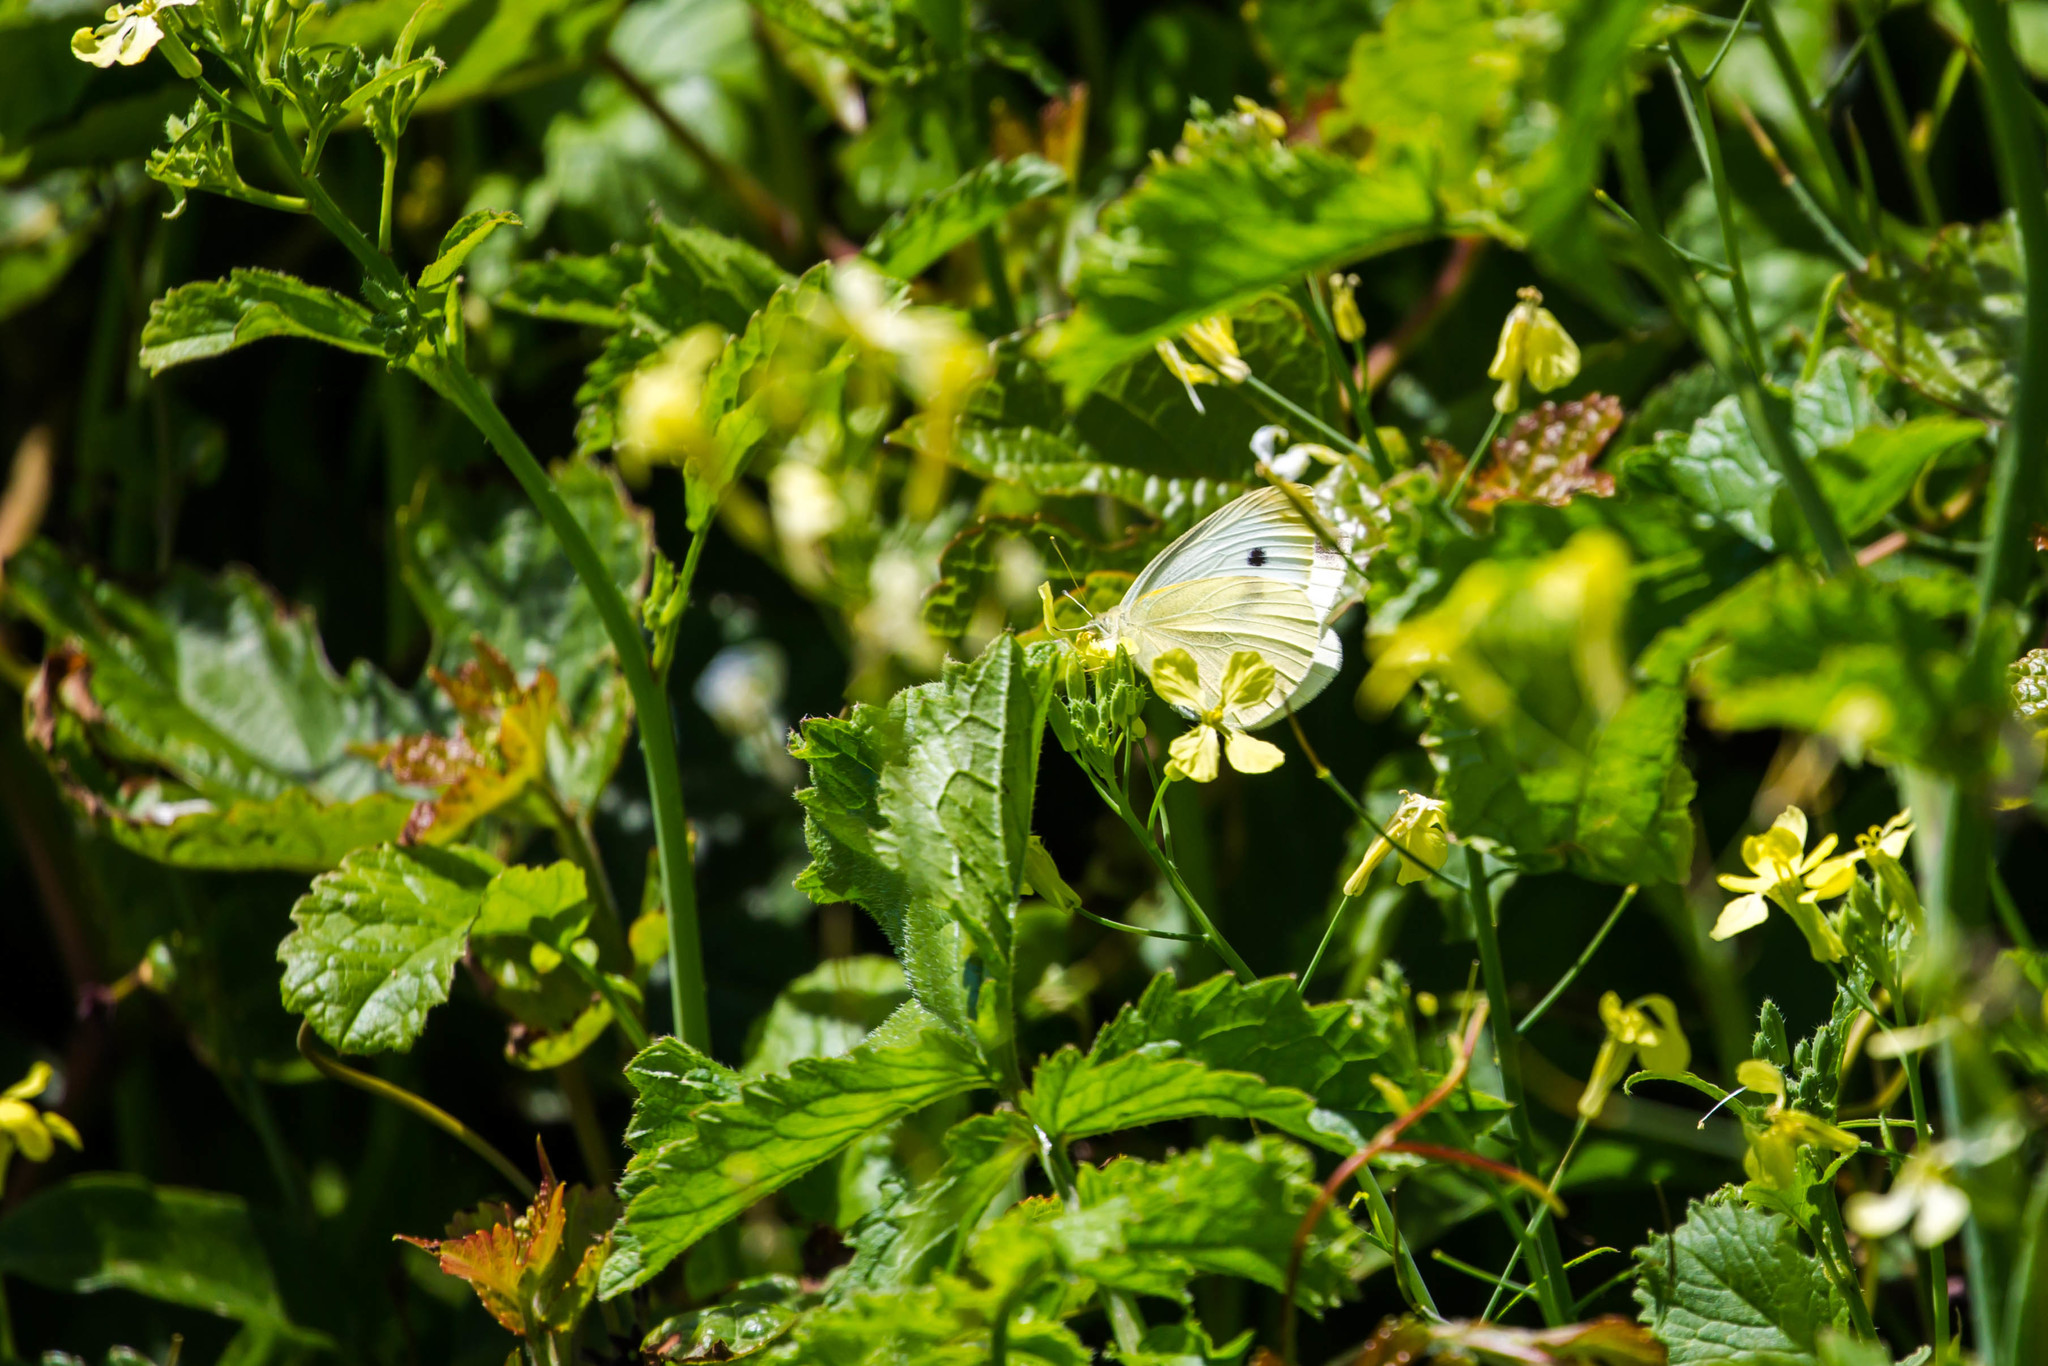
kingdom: Animalia
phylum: Arthropoda
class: Insecta
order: Lepidoptera
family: Pieridae
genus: Pieris
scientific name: Pieris rapae
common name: Small white
